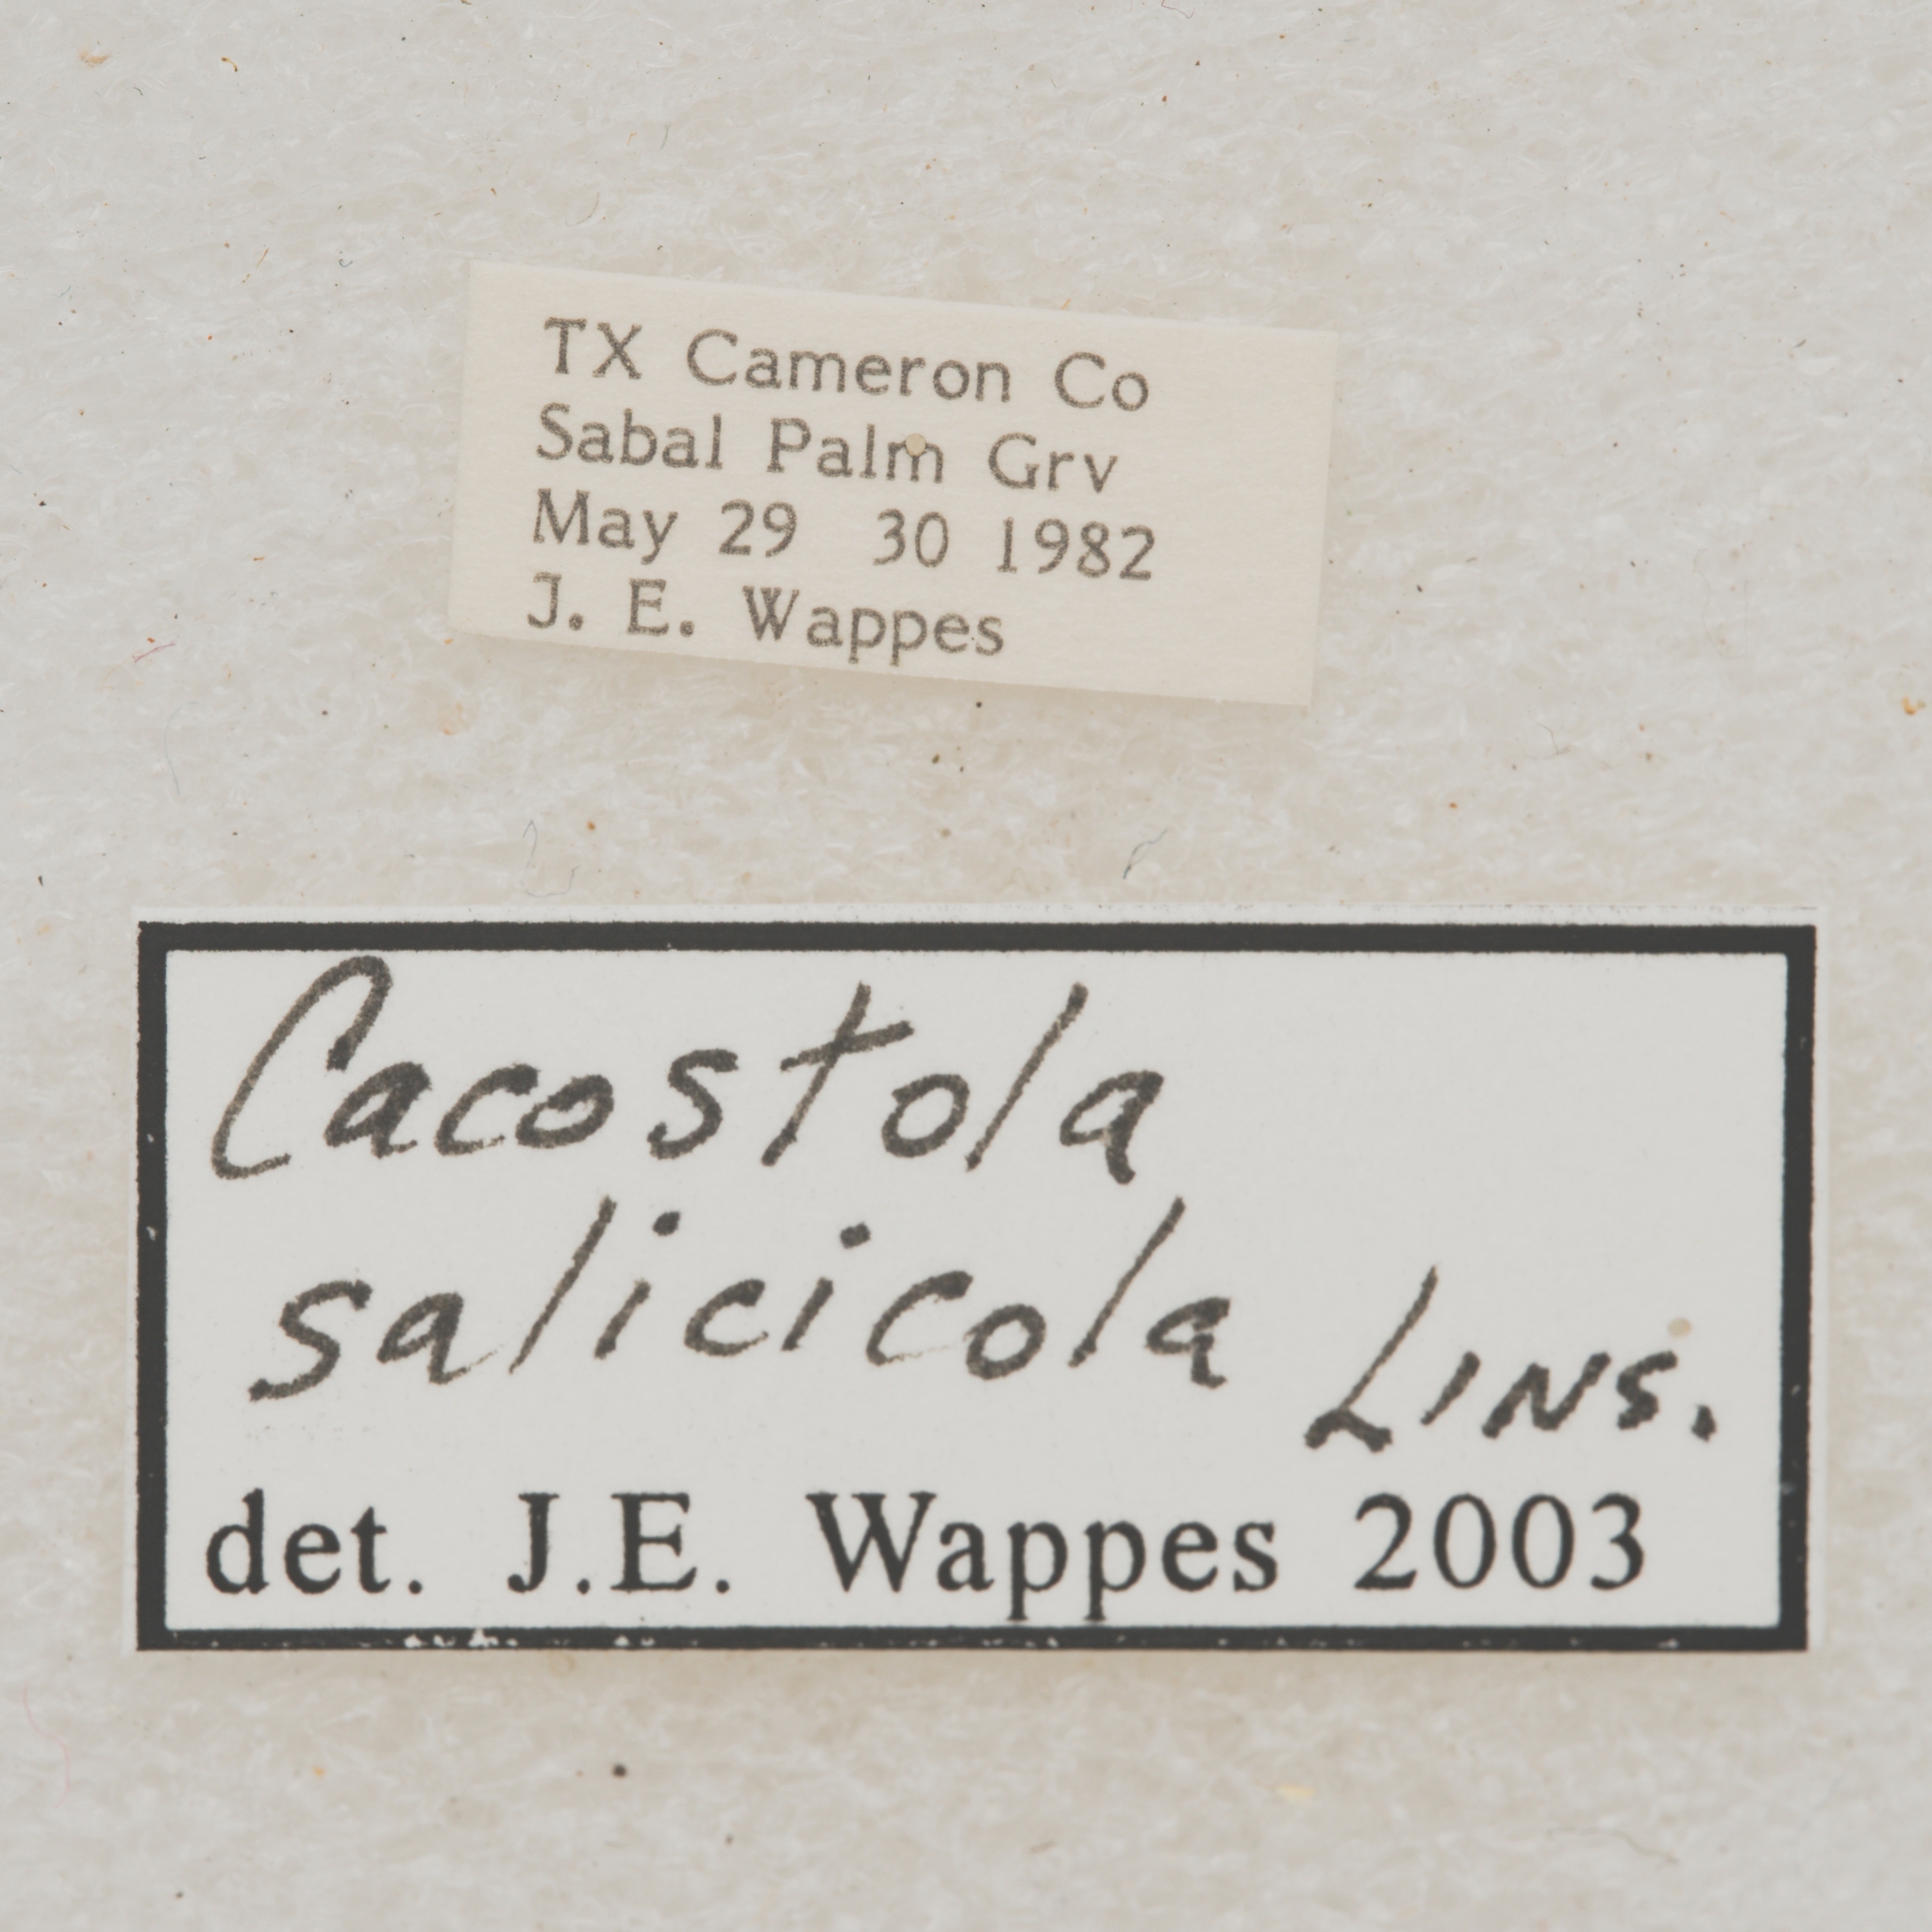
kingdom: Animalia
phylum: Arthropoda
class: Insecta
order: Coleoptera
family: Cerambycidae
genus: Cacostola
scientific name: Cacostola salicicola
